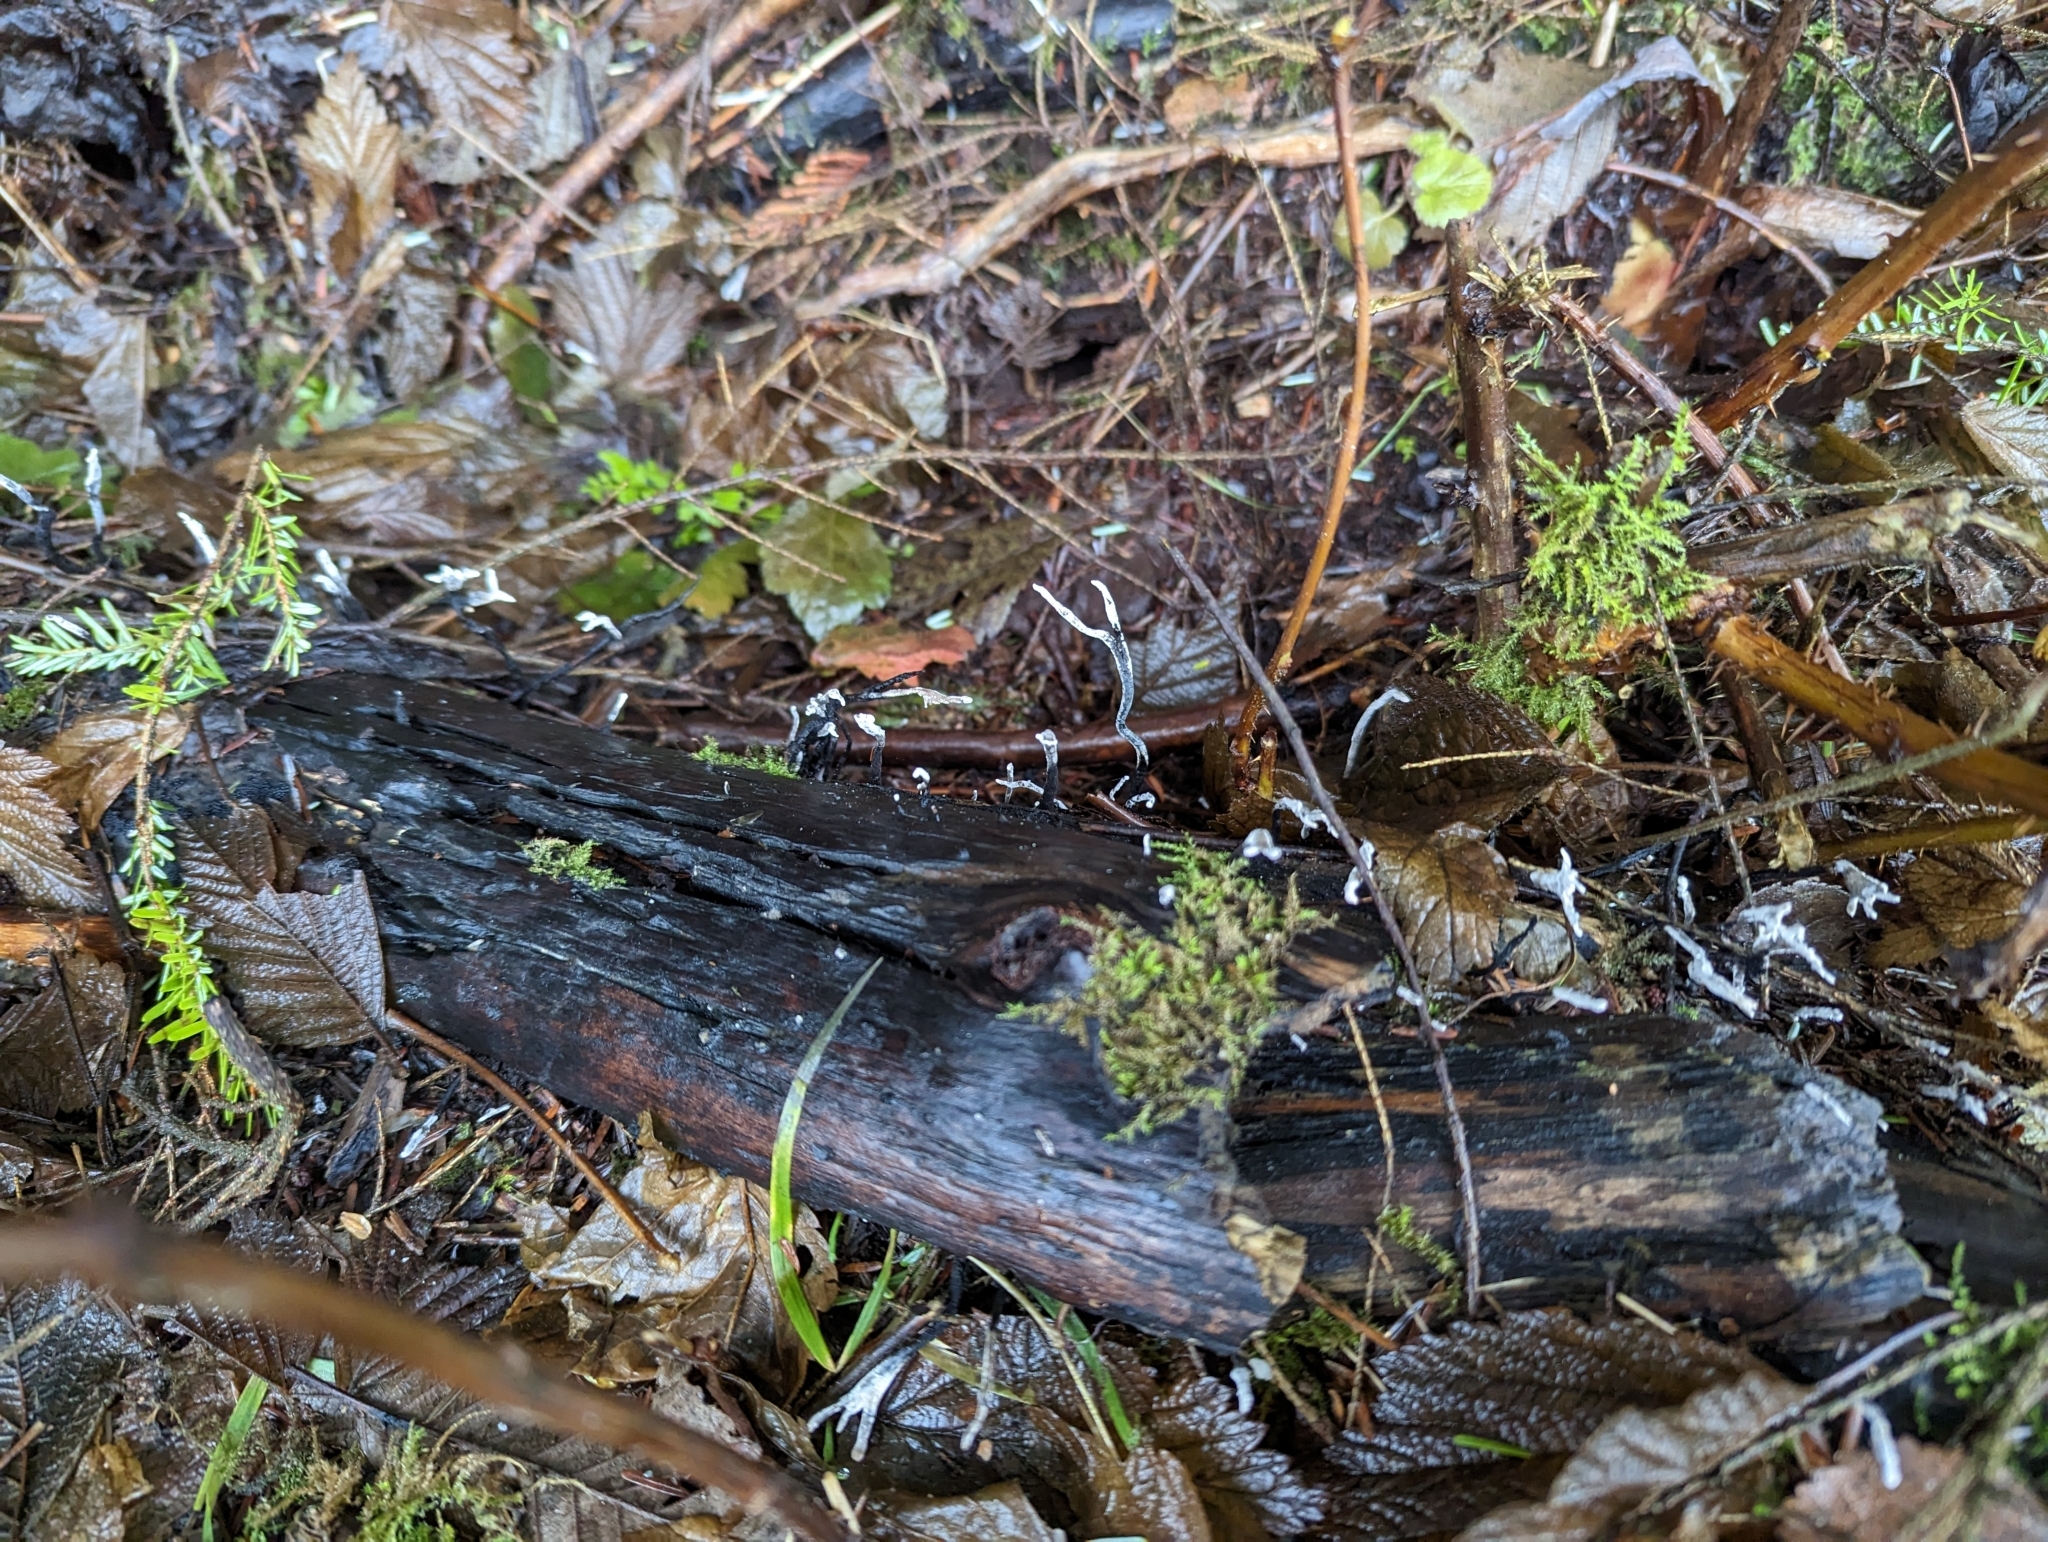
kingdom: Fungi
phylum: Ascomycota
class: Sordariomycetes
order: Xylariales
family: Xylariaceae
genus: Xylaria
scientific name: Xylaria hypoxylon
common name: Candle-snuff fungus
